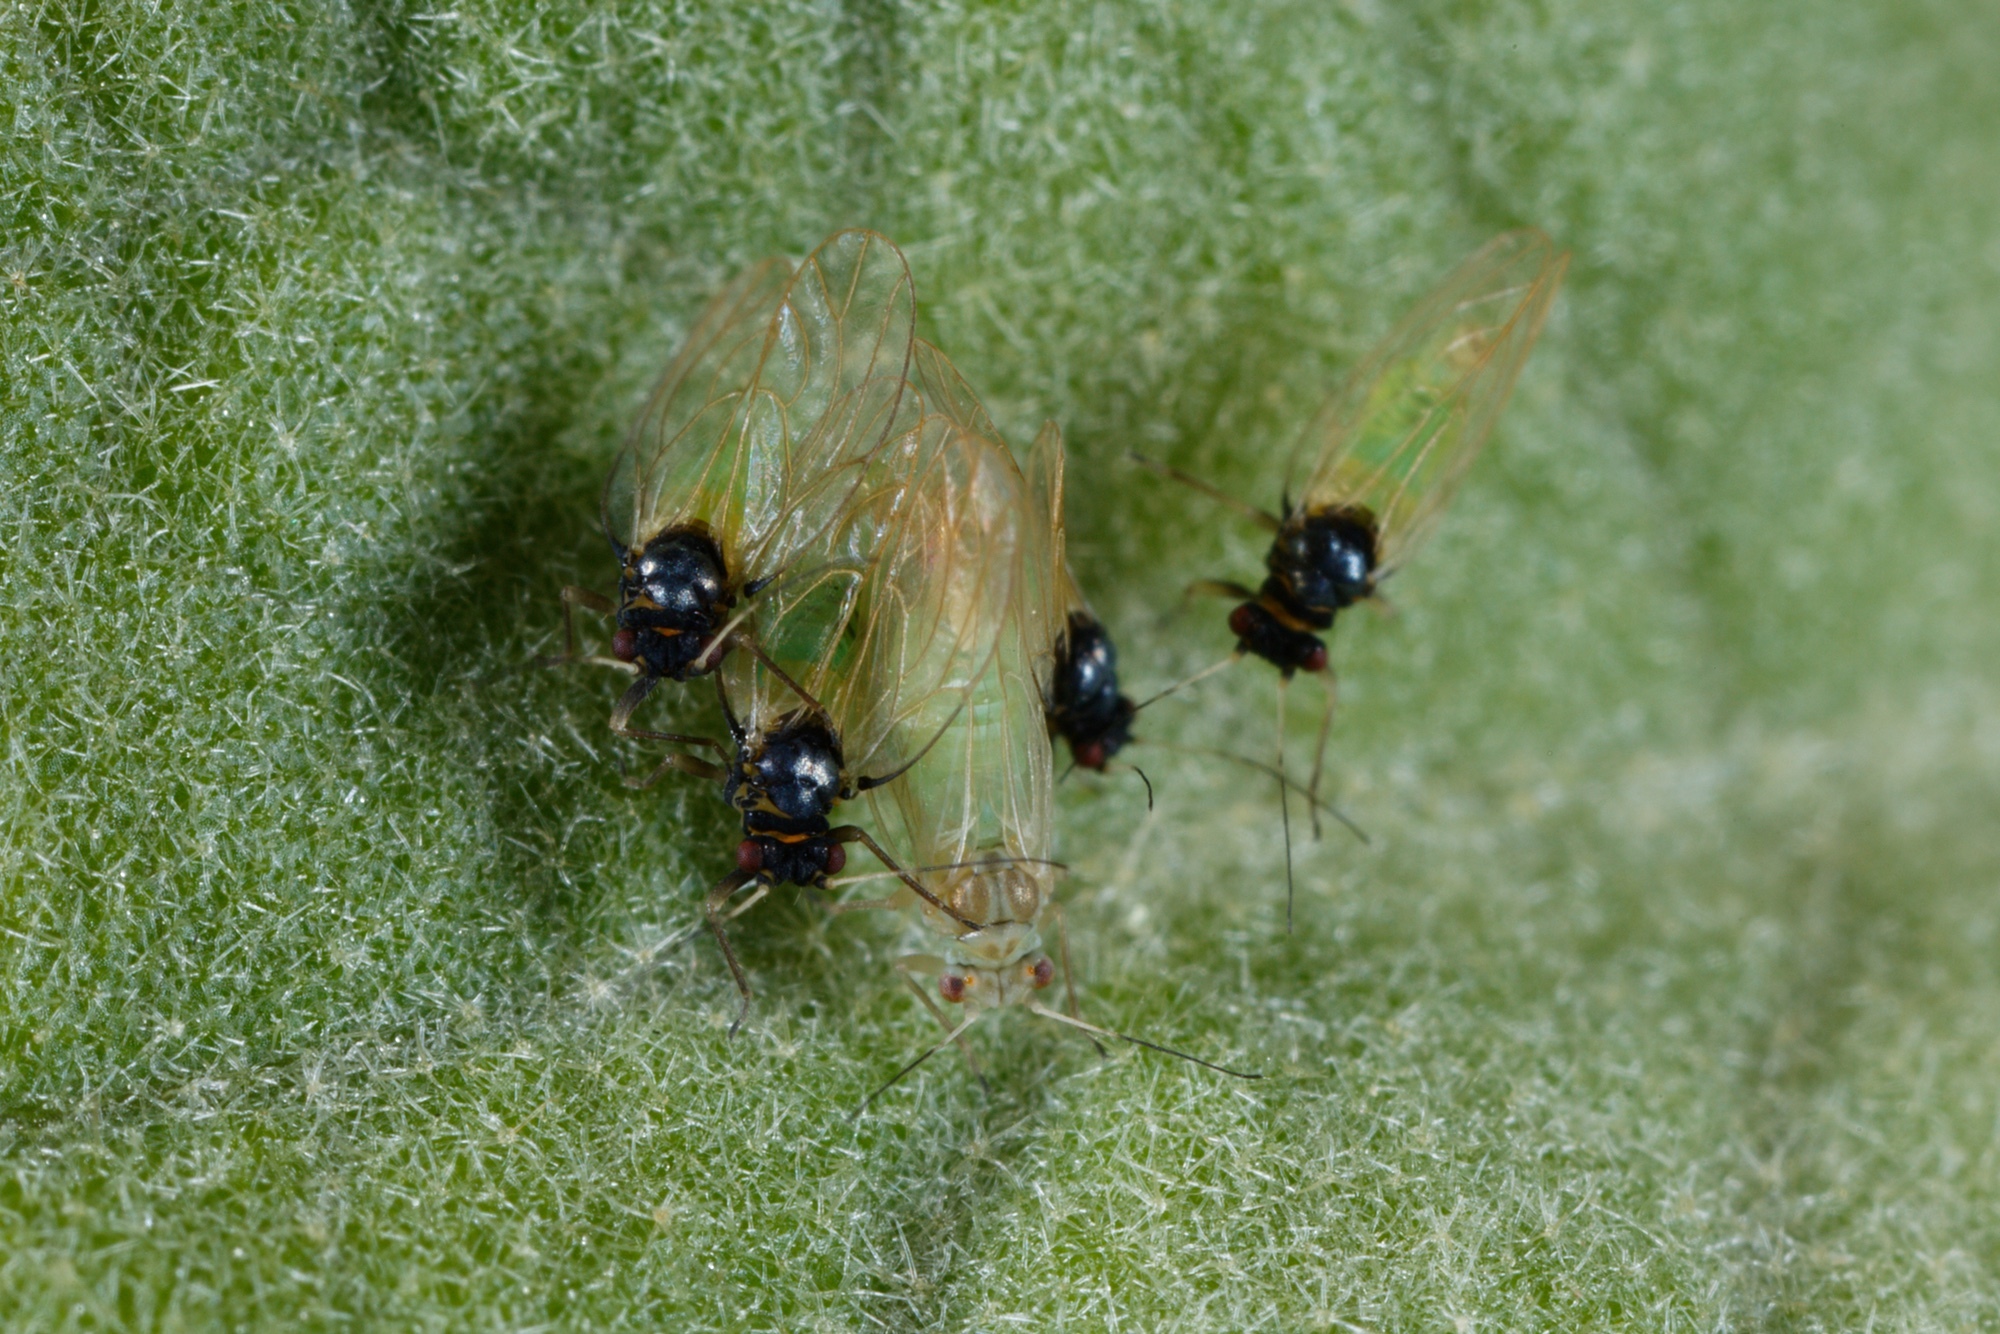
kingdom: Animalia
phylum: Arthropoda
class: Insecta
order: Hemiptera
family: Psyllidae
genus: Acizzia
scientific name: Acizzia solanicola
